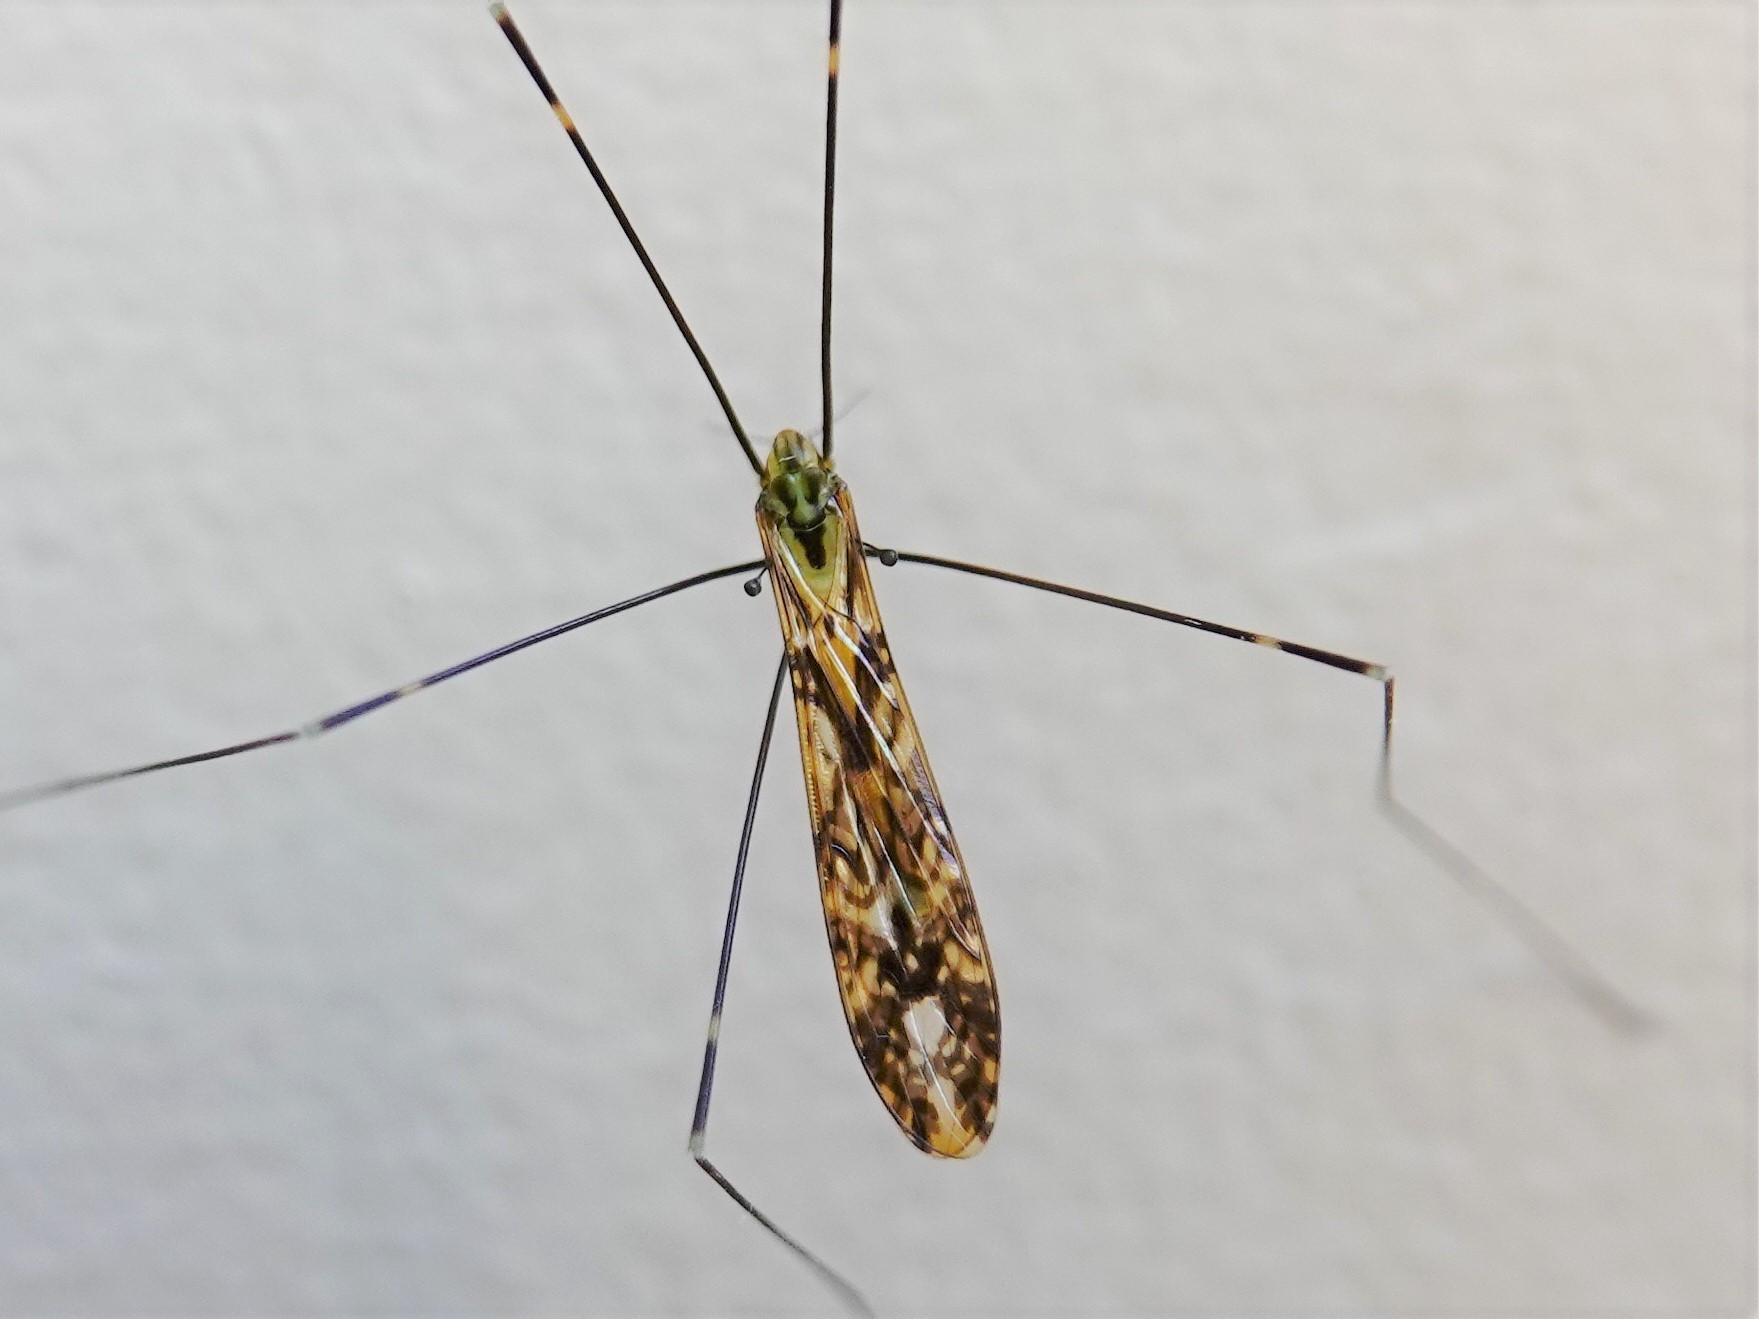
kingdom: Animalia
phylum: Arthropoda
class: Insecta
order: Diptera
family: Limoniidae
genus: Discobola
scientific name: Discobola tessellata
